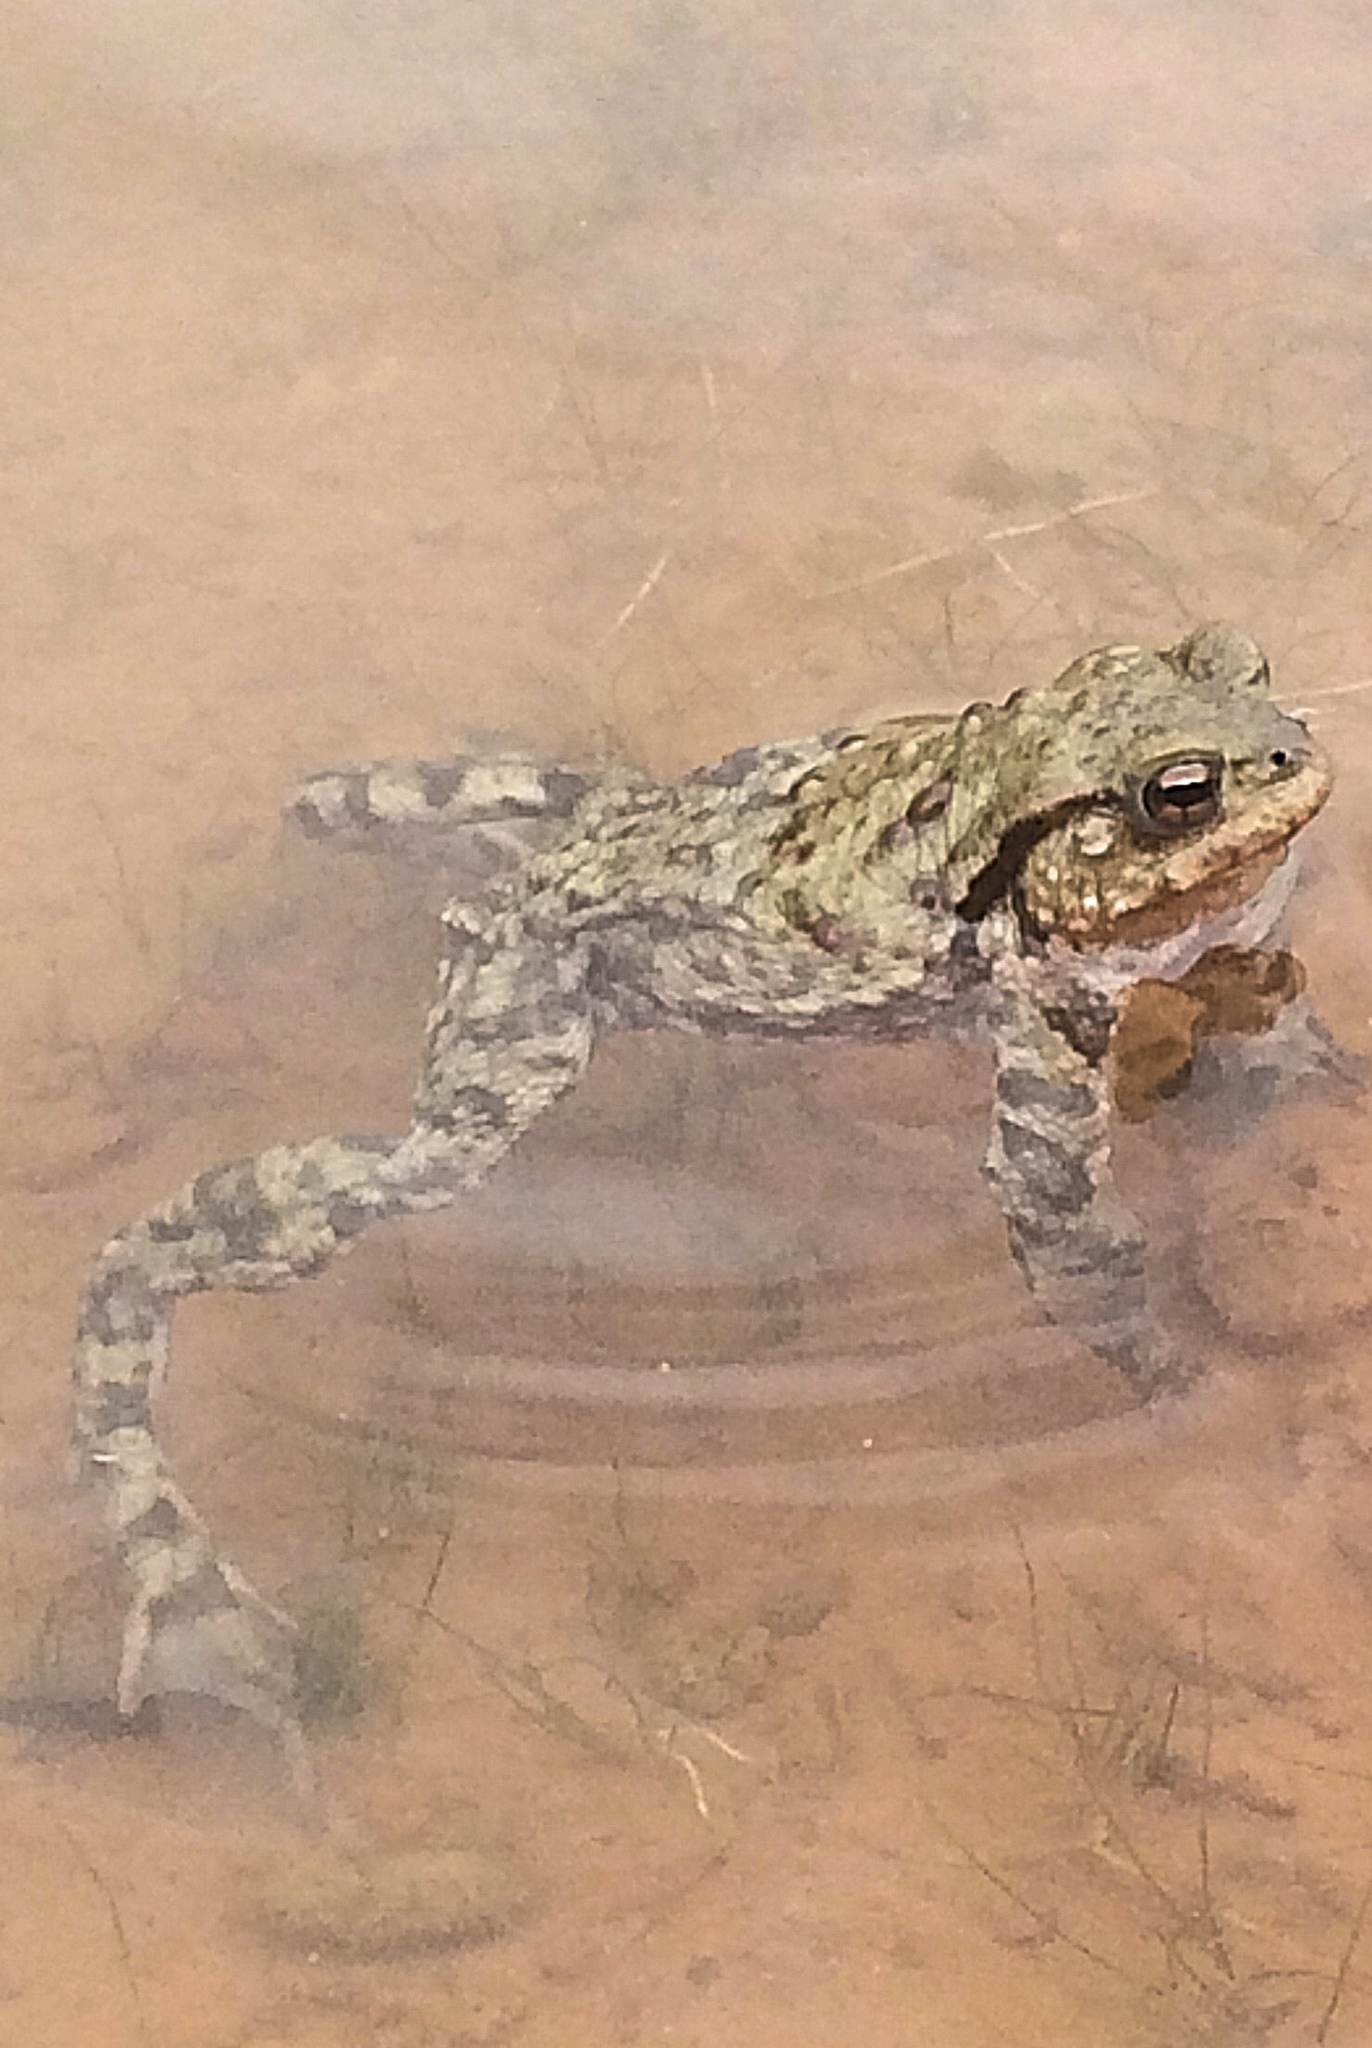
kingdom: Animalia
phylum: Chordata
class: Amphibia
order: Anura
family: Bufonidae
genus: Bufo
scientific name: Bufo bufo
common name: Common toad
